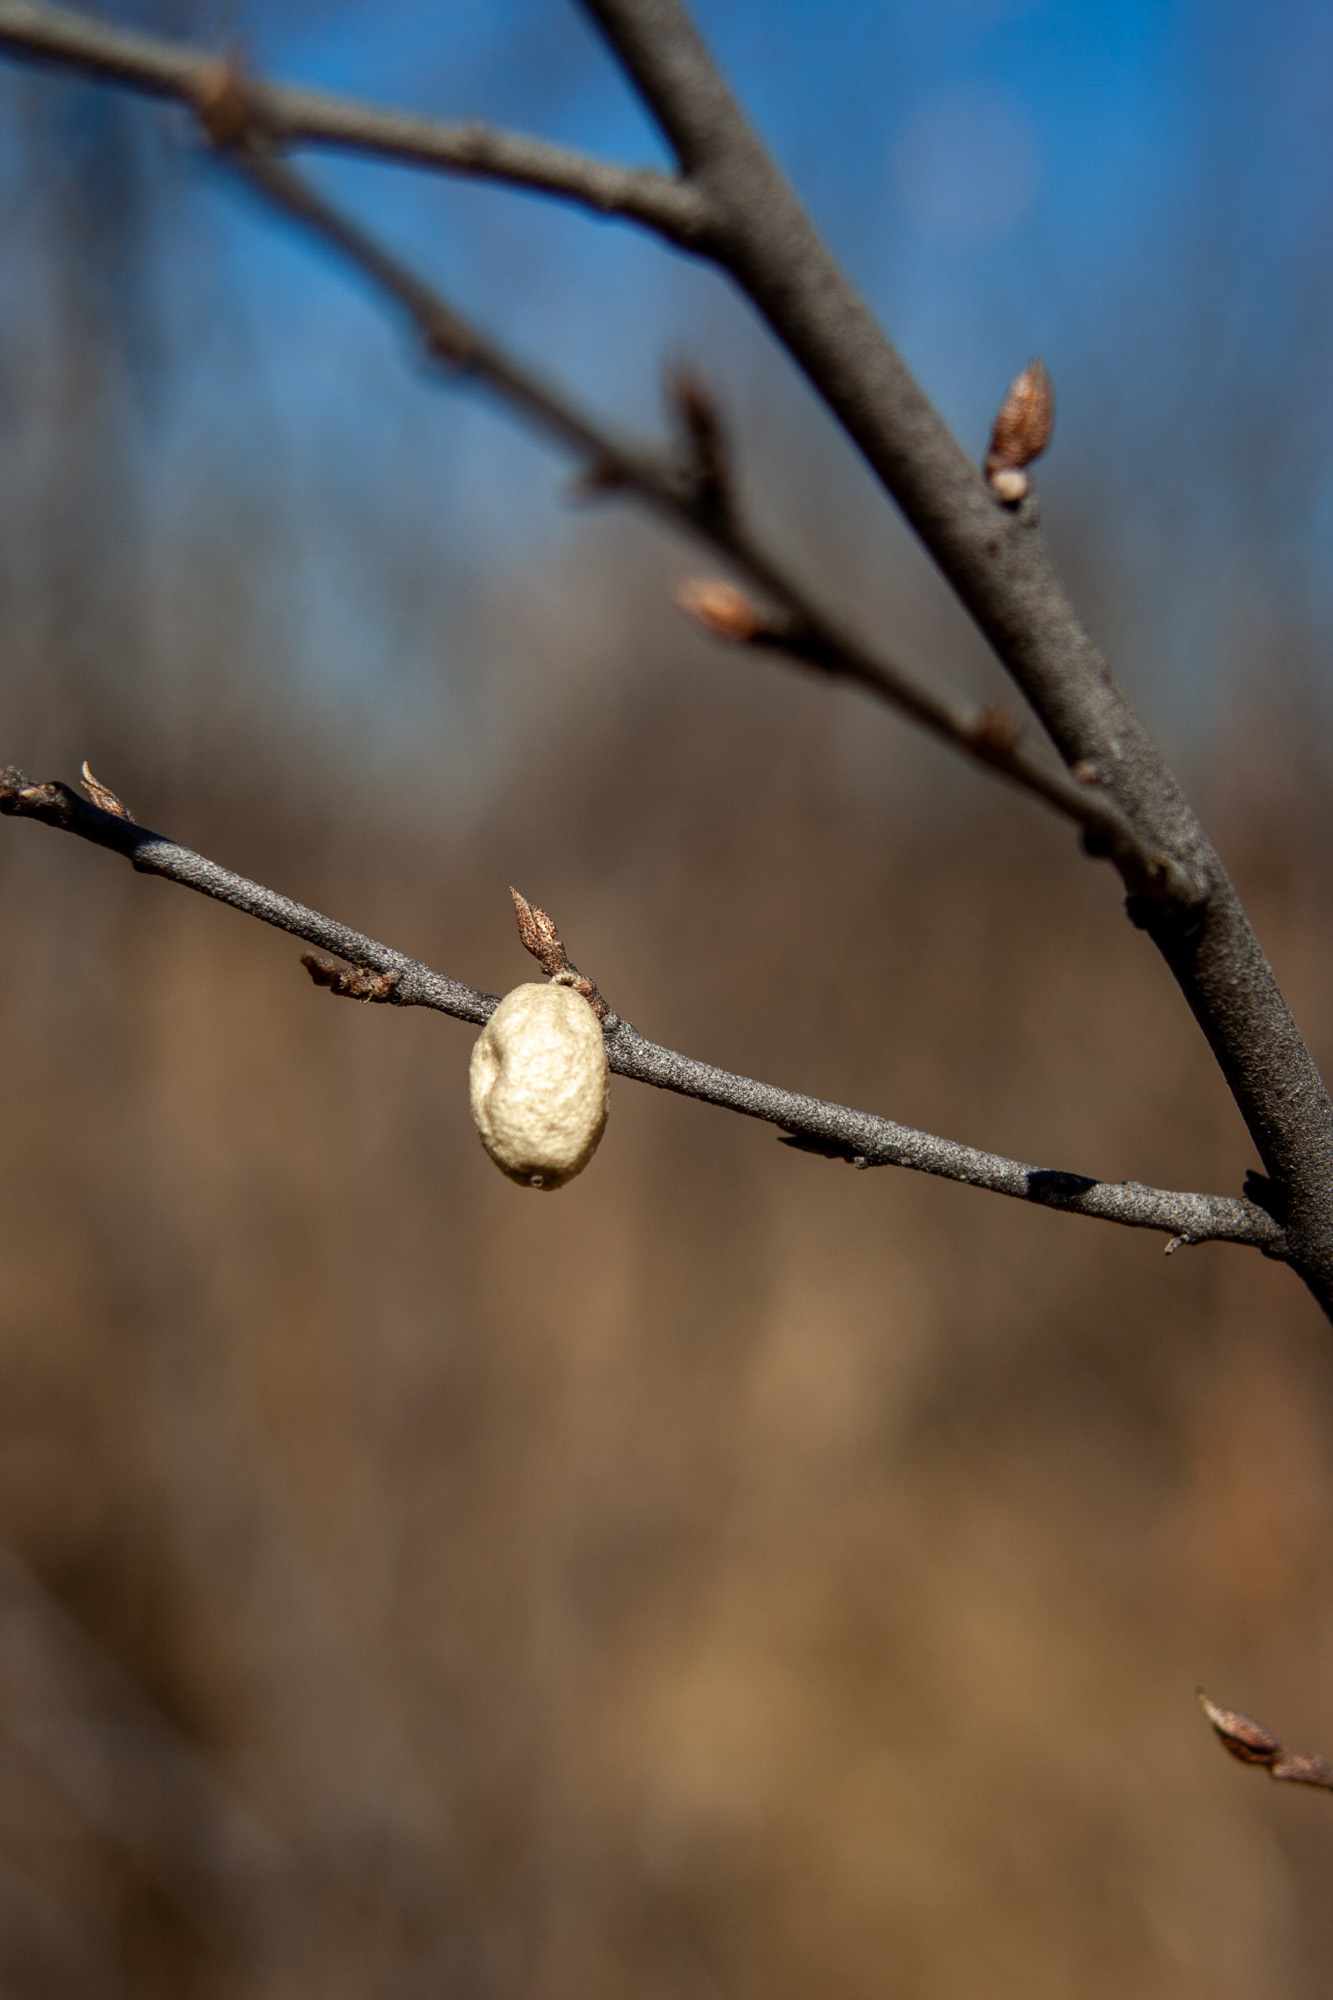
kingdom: Plantae
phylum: Tracheophyta
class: Magnoliopsida
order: Rosales
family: Elaeagnaceae
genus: Elaeagnus
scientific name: Elaeagnus commutata
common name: Silverberry
